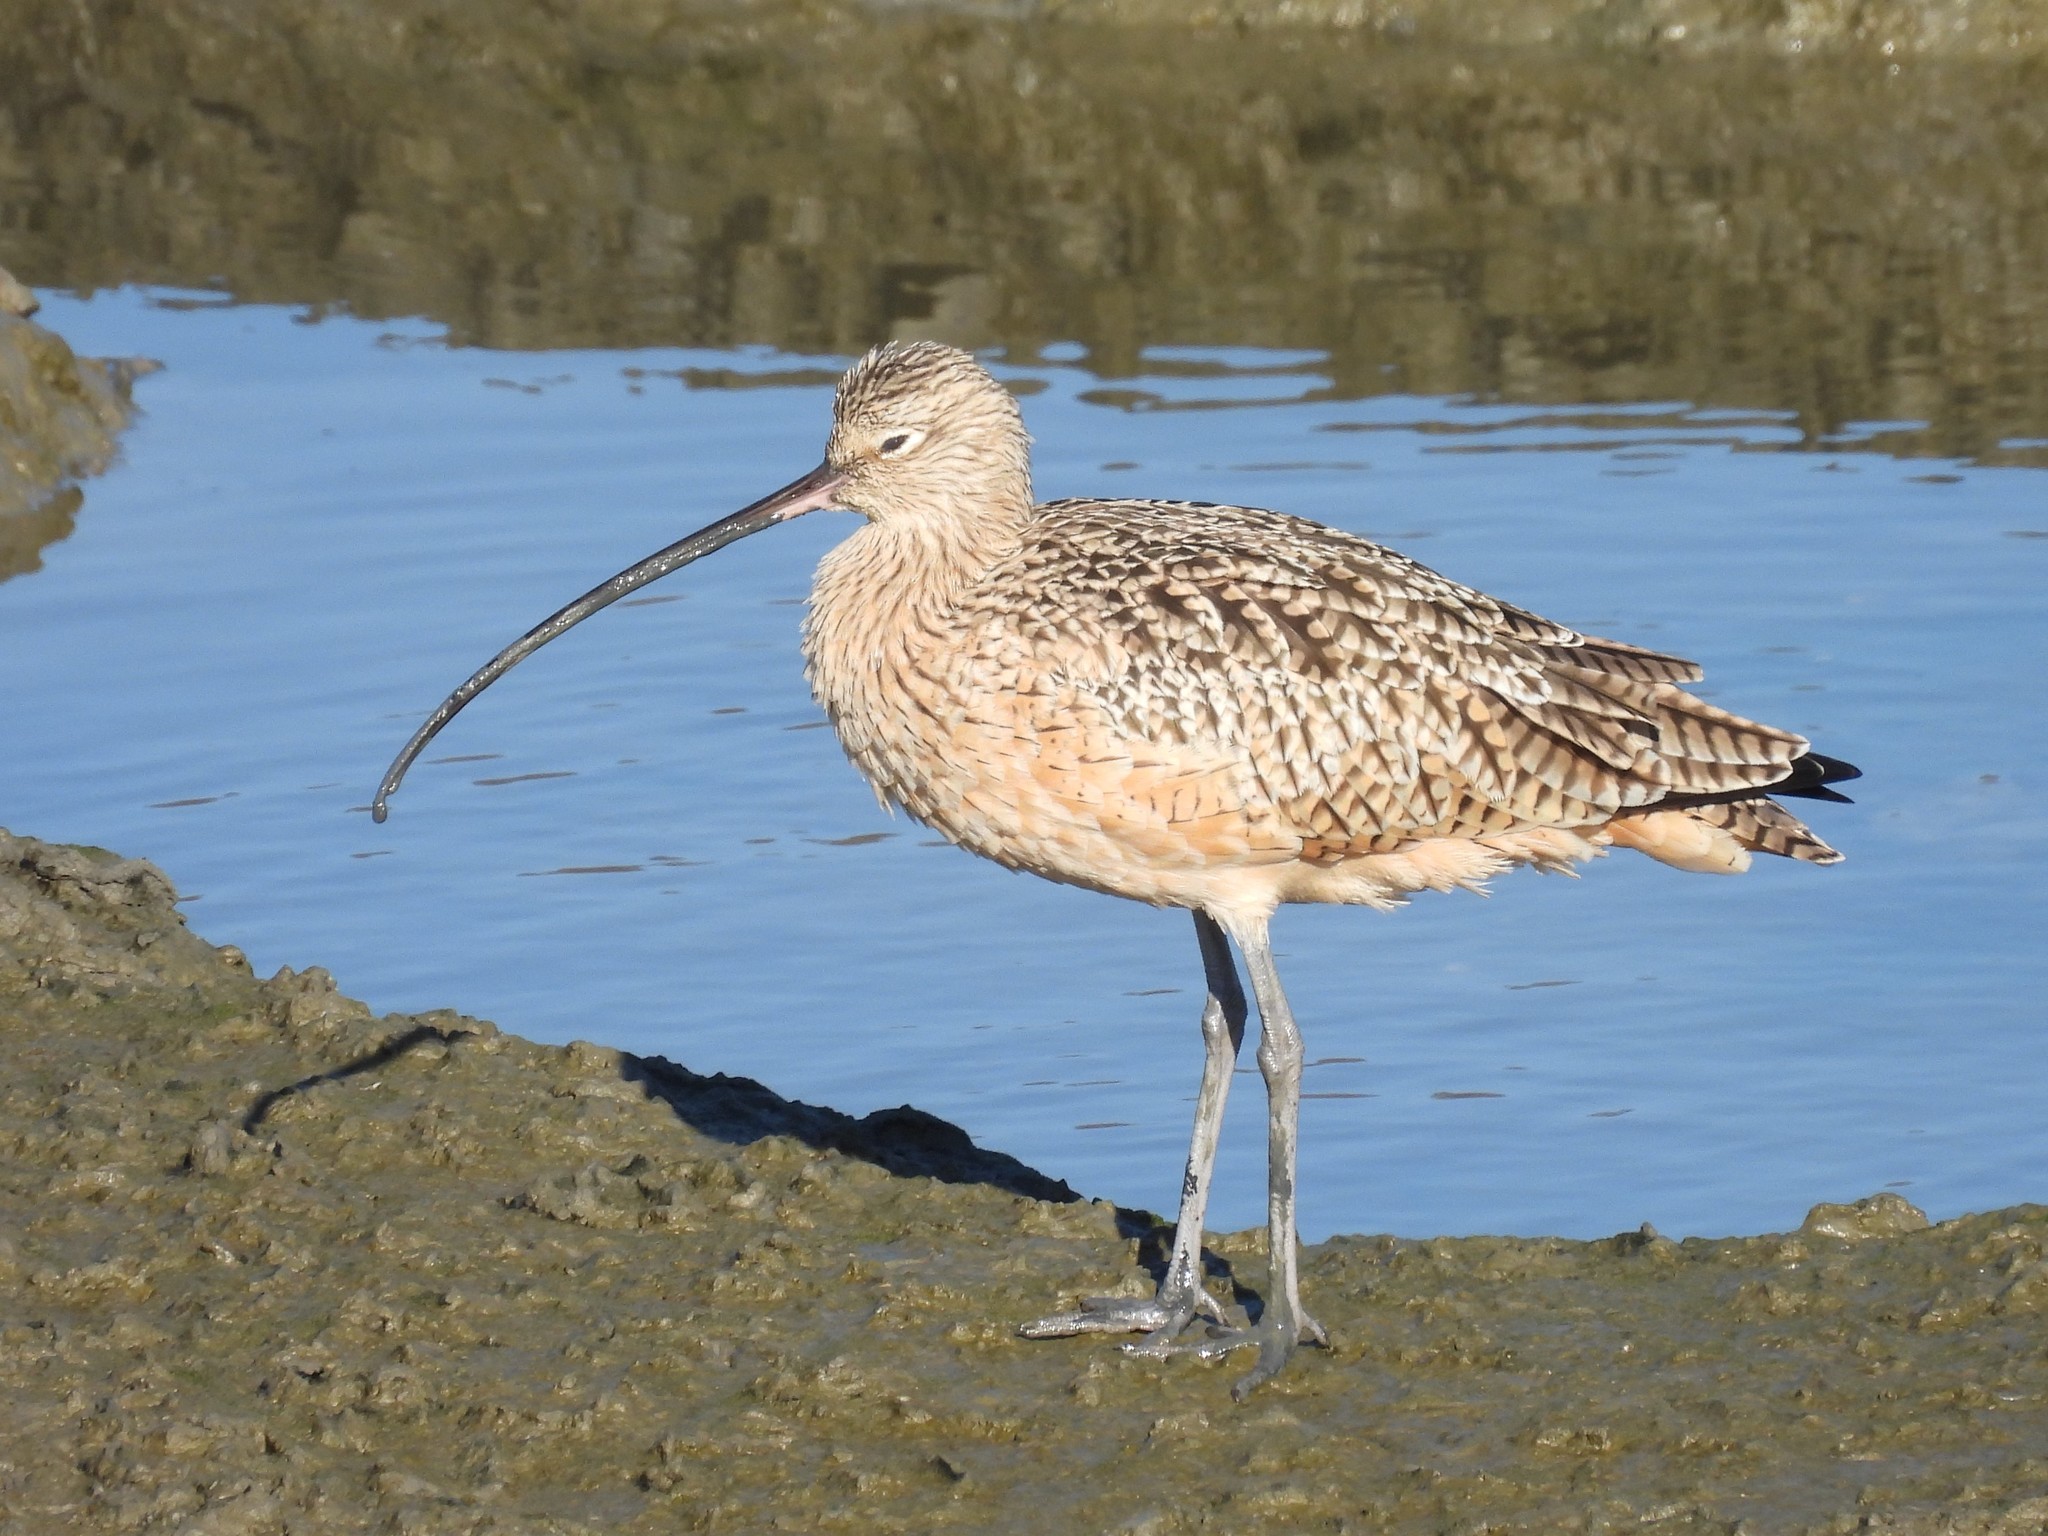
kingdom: Animalia
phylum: Chordata
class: Aves
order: Charadriiformes
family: Scolopacidae
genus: Numenius
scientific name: Numenius americanus
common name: Long-billed curlew
